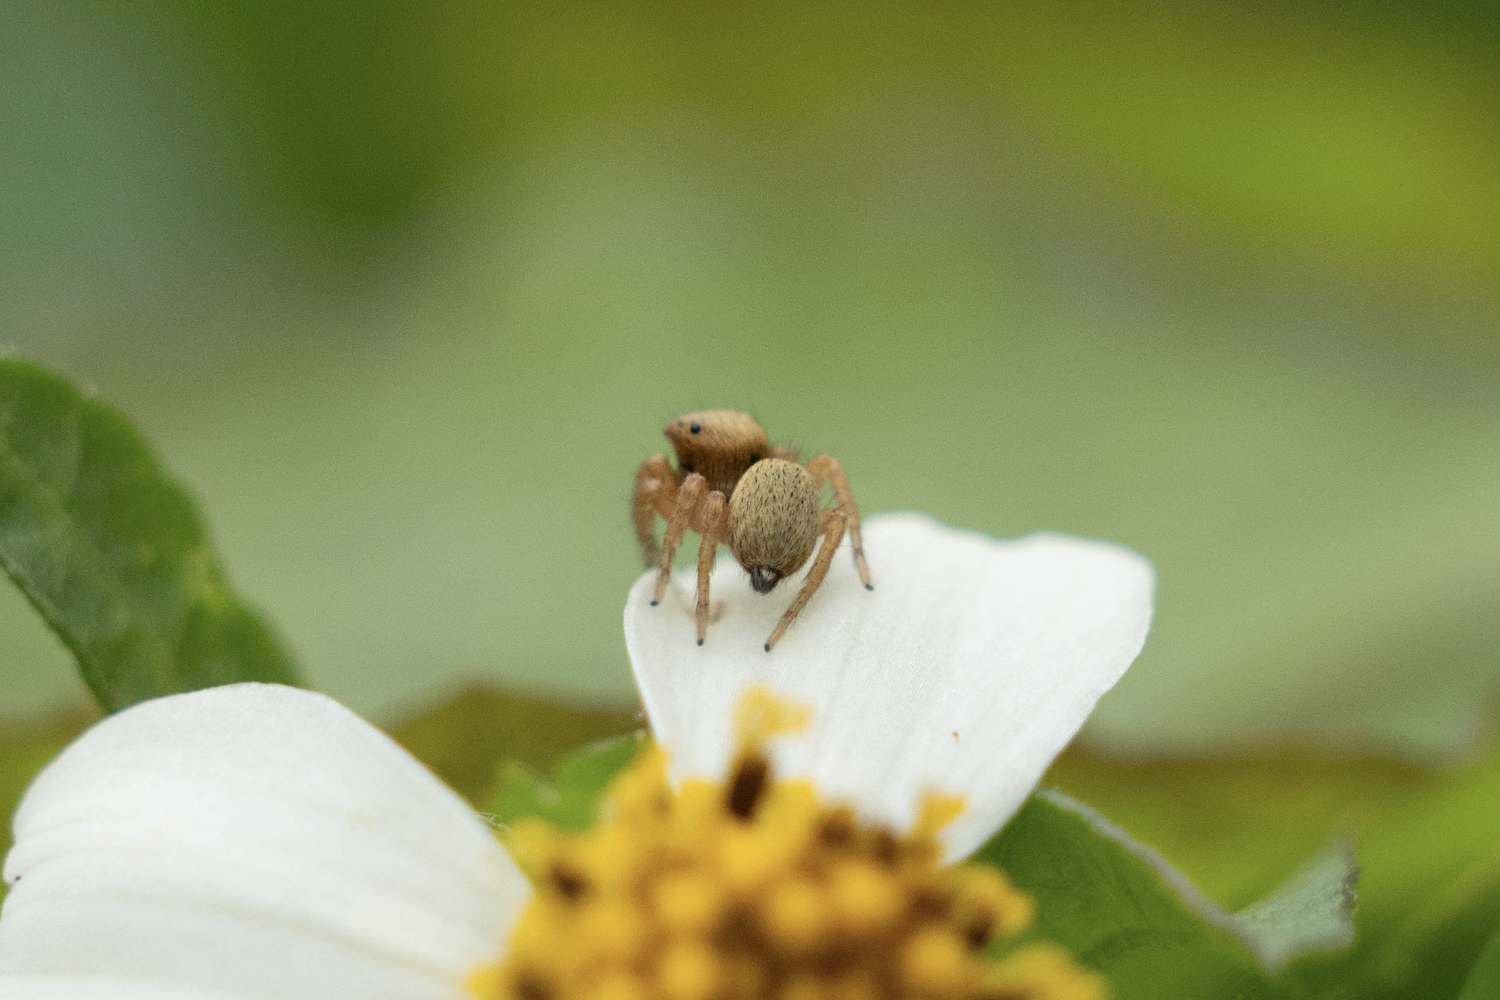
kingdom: Animalia
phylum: Arthropoda
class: Arachnida
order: Araneae
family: Salticidae
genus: Carrhotus
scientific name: Carrhotus sannio
